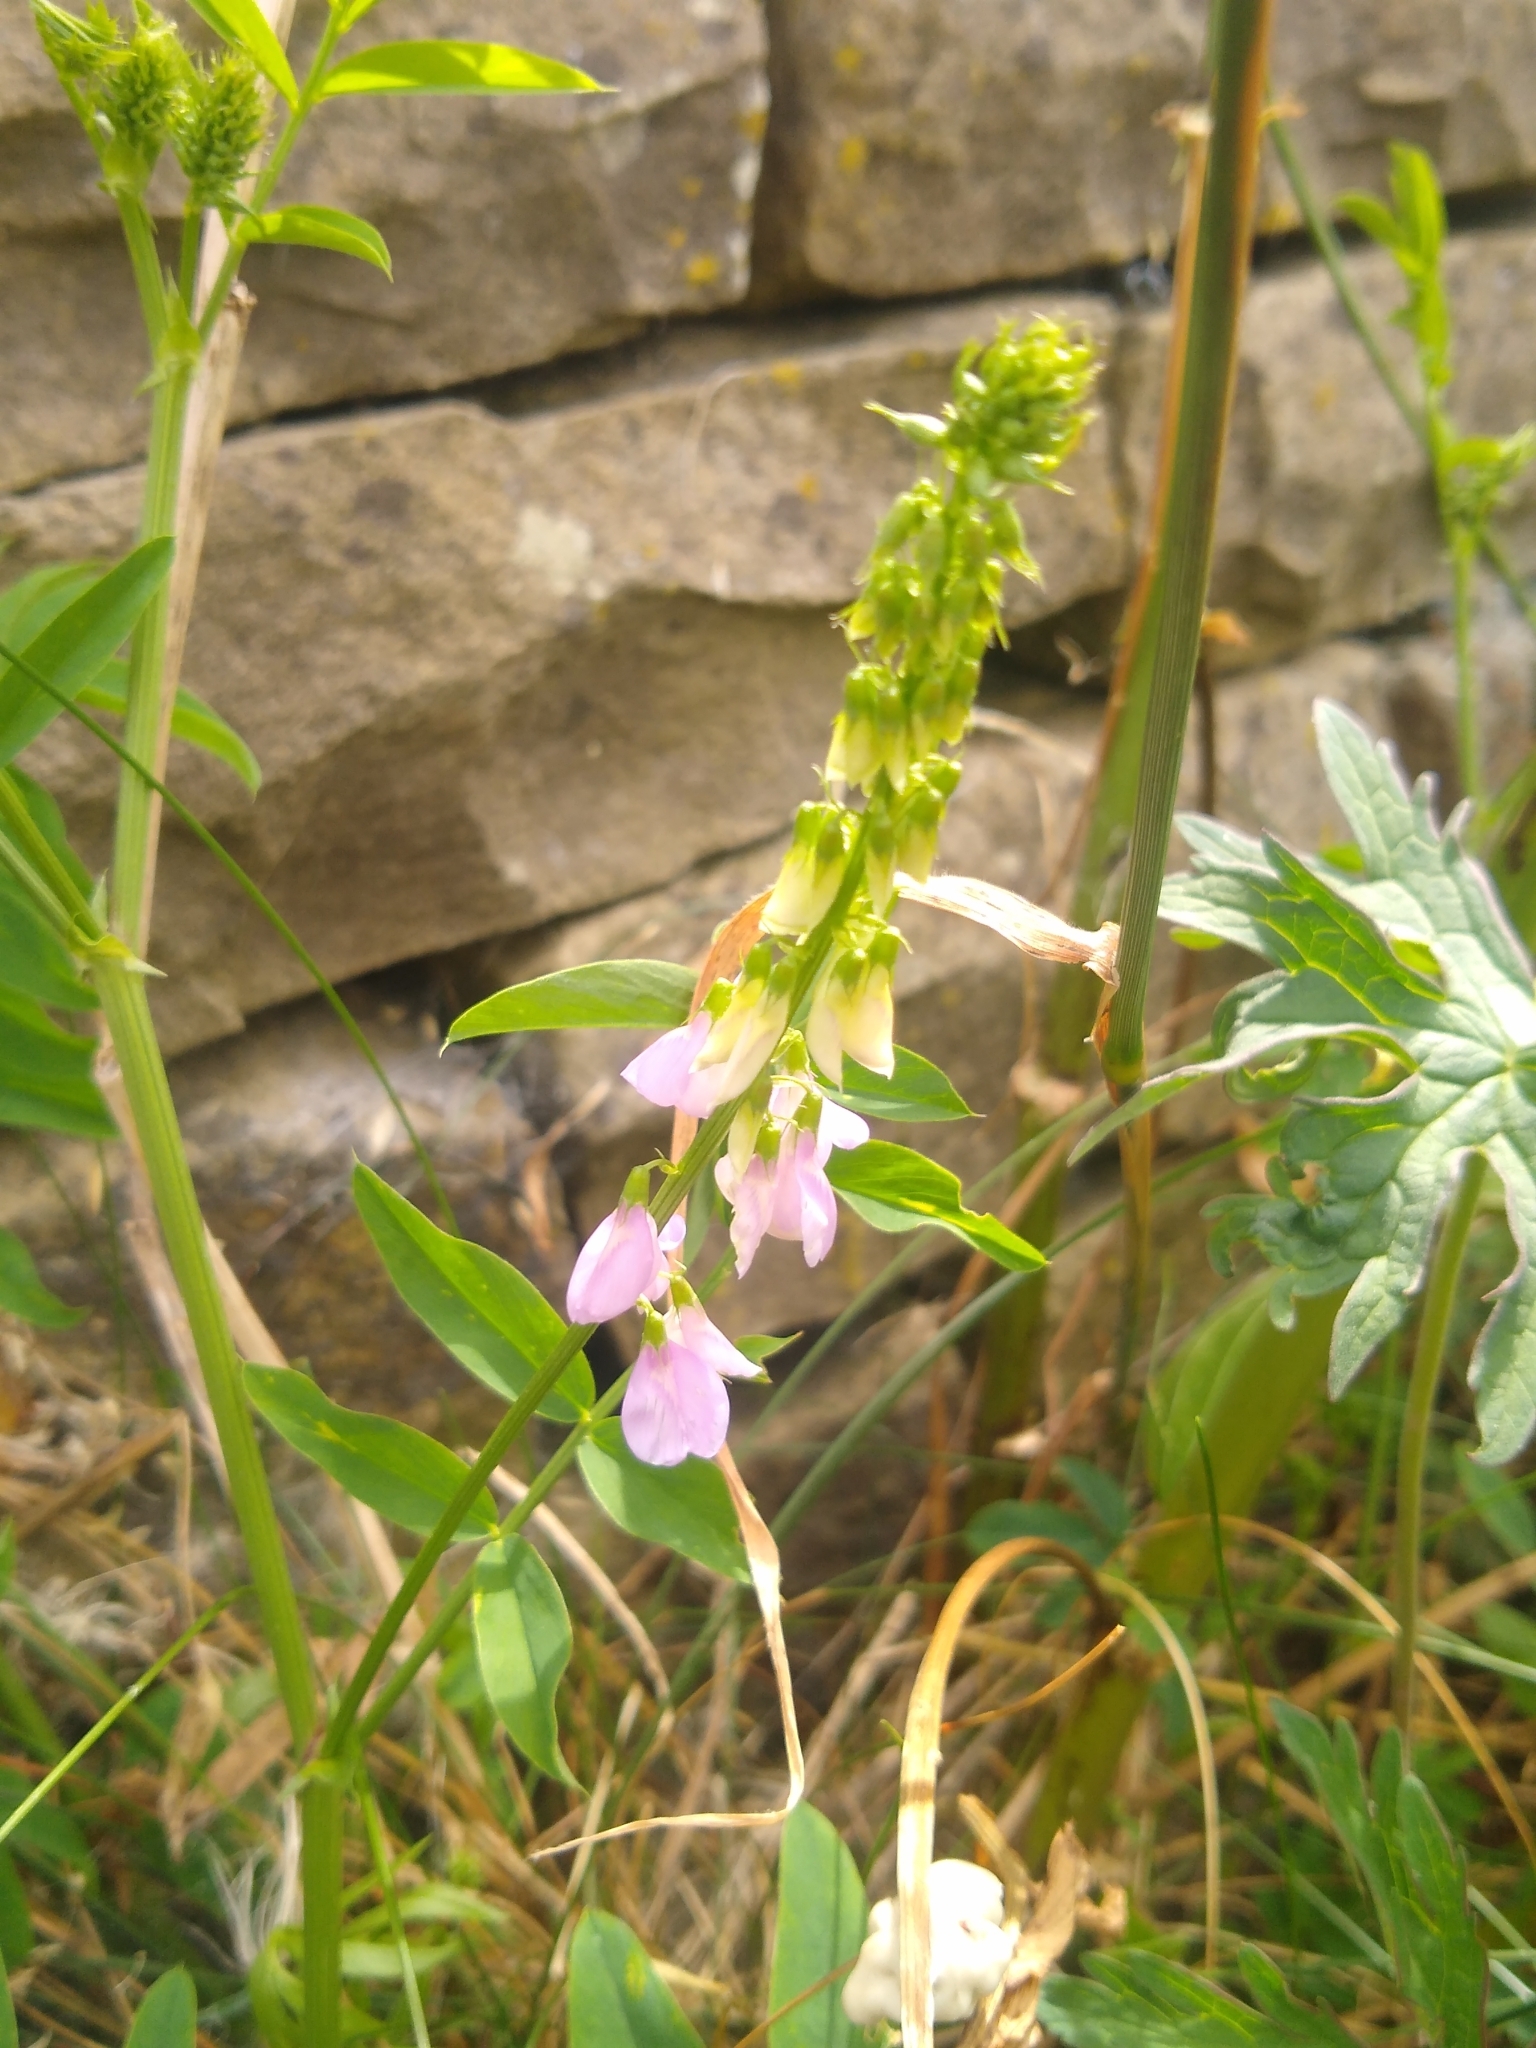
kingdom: Plantae
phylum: Tracheophyta
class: Magnoliopsida
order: Fabales
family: Fabaceae
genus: Galega
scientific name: Galega officinalis
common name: Goat's-rue
